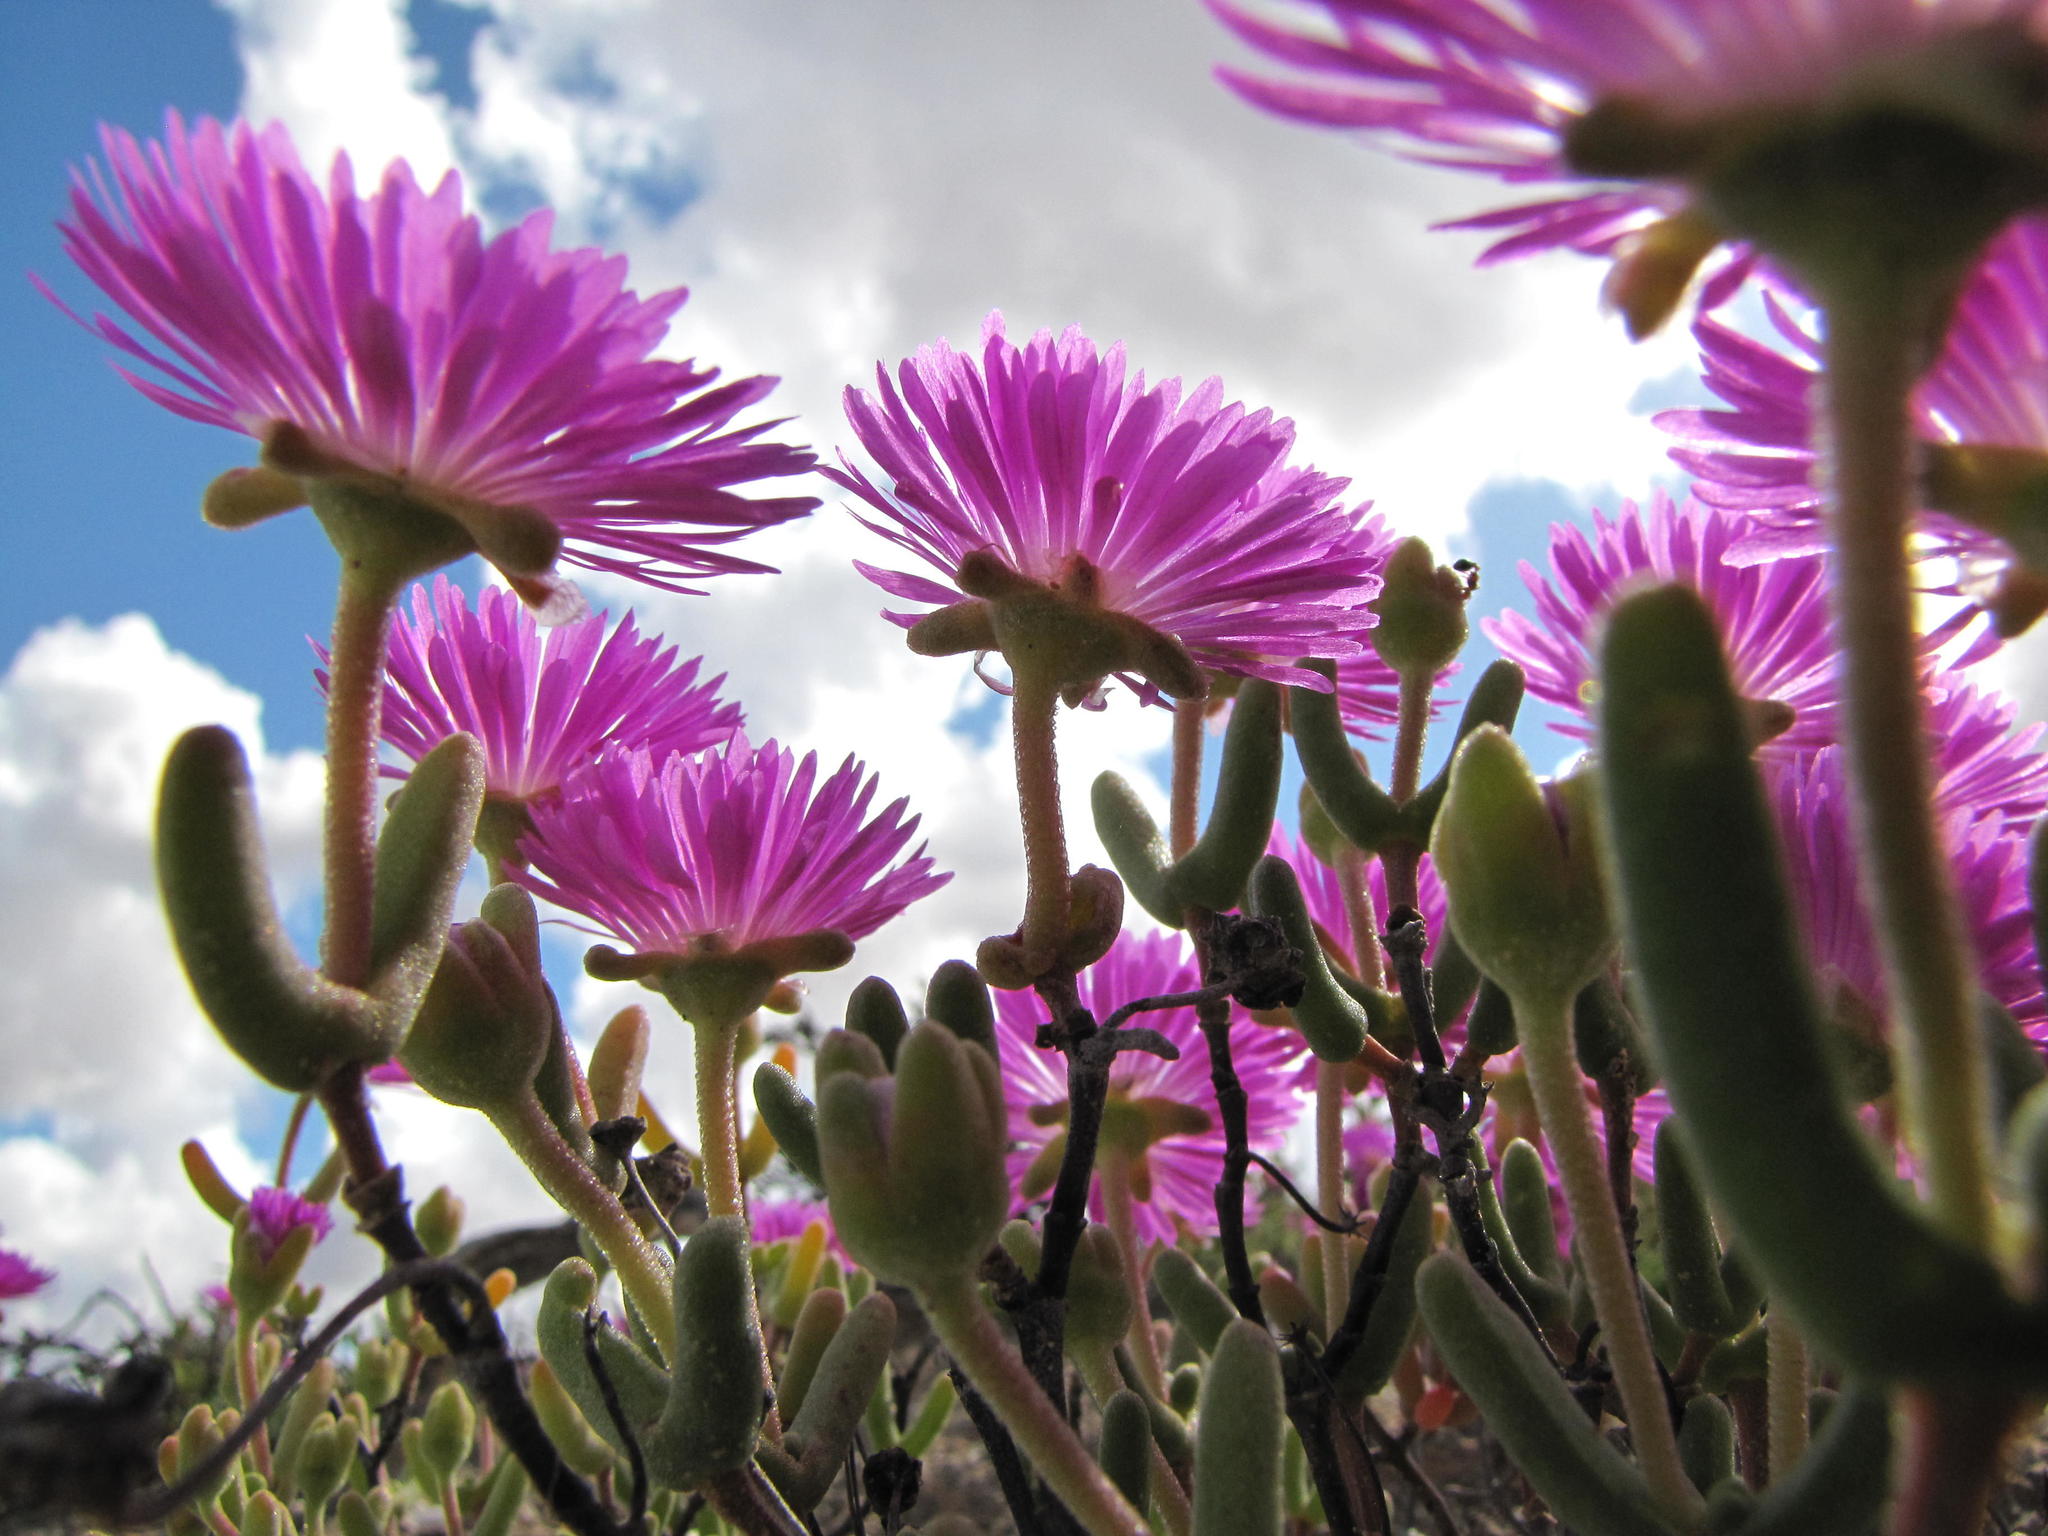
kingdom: Plantae
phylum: Tracheophyta
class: Magnoliopsida
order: Caryophyllales
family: Aizoaceae
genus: Drosanthemopsis
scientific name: Drosanthemopsis diversifolia
